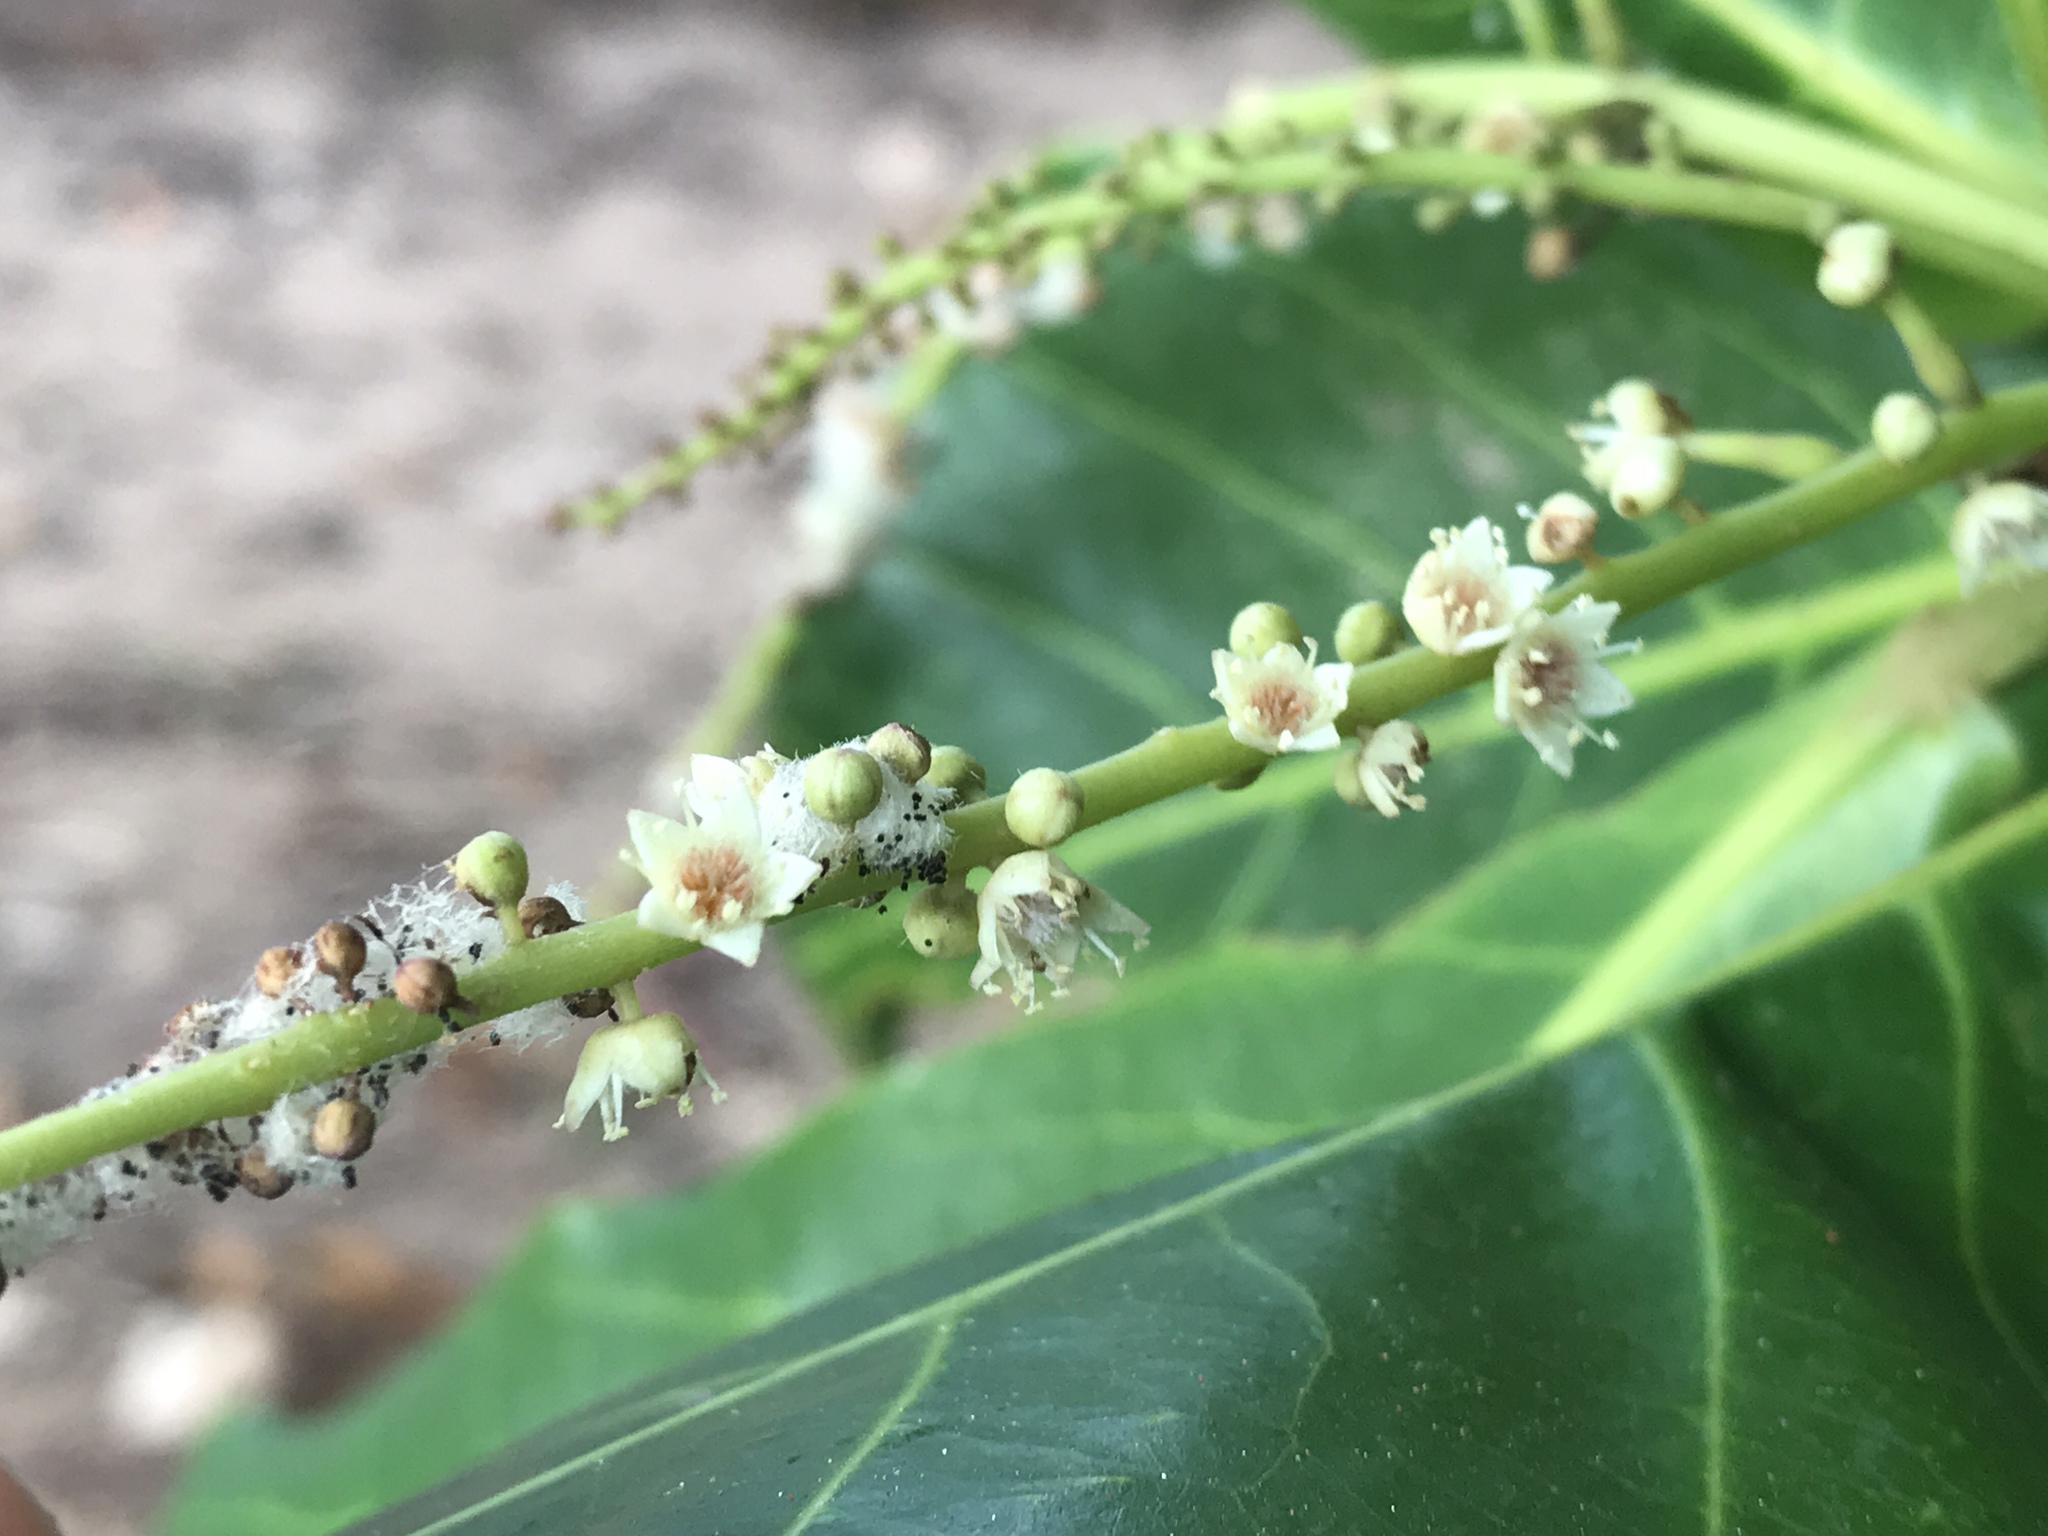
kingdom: Plantae
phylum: Tracheophyta
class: Magnoliopsida
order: Myrtales
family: Combretaceae
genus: Terminalia
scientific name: Terminalia catappa
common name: Tropical almond
